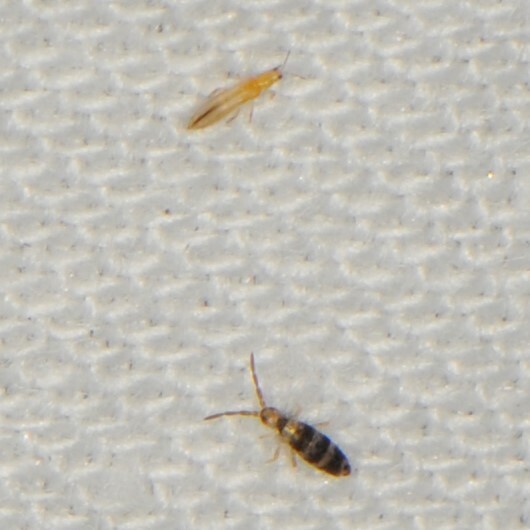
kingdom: Animalia
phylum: Arthropoda
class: Collembola
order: Entomobryomorpha
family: Entomobryidae
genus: Seira
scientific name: Seira
